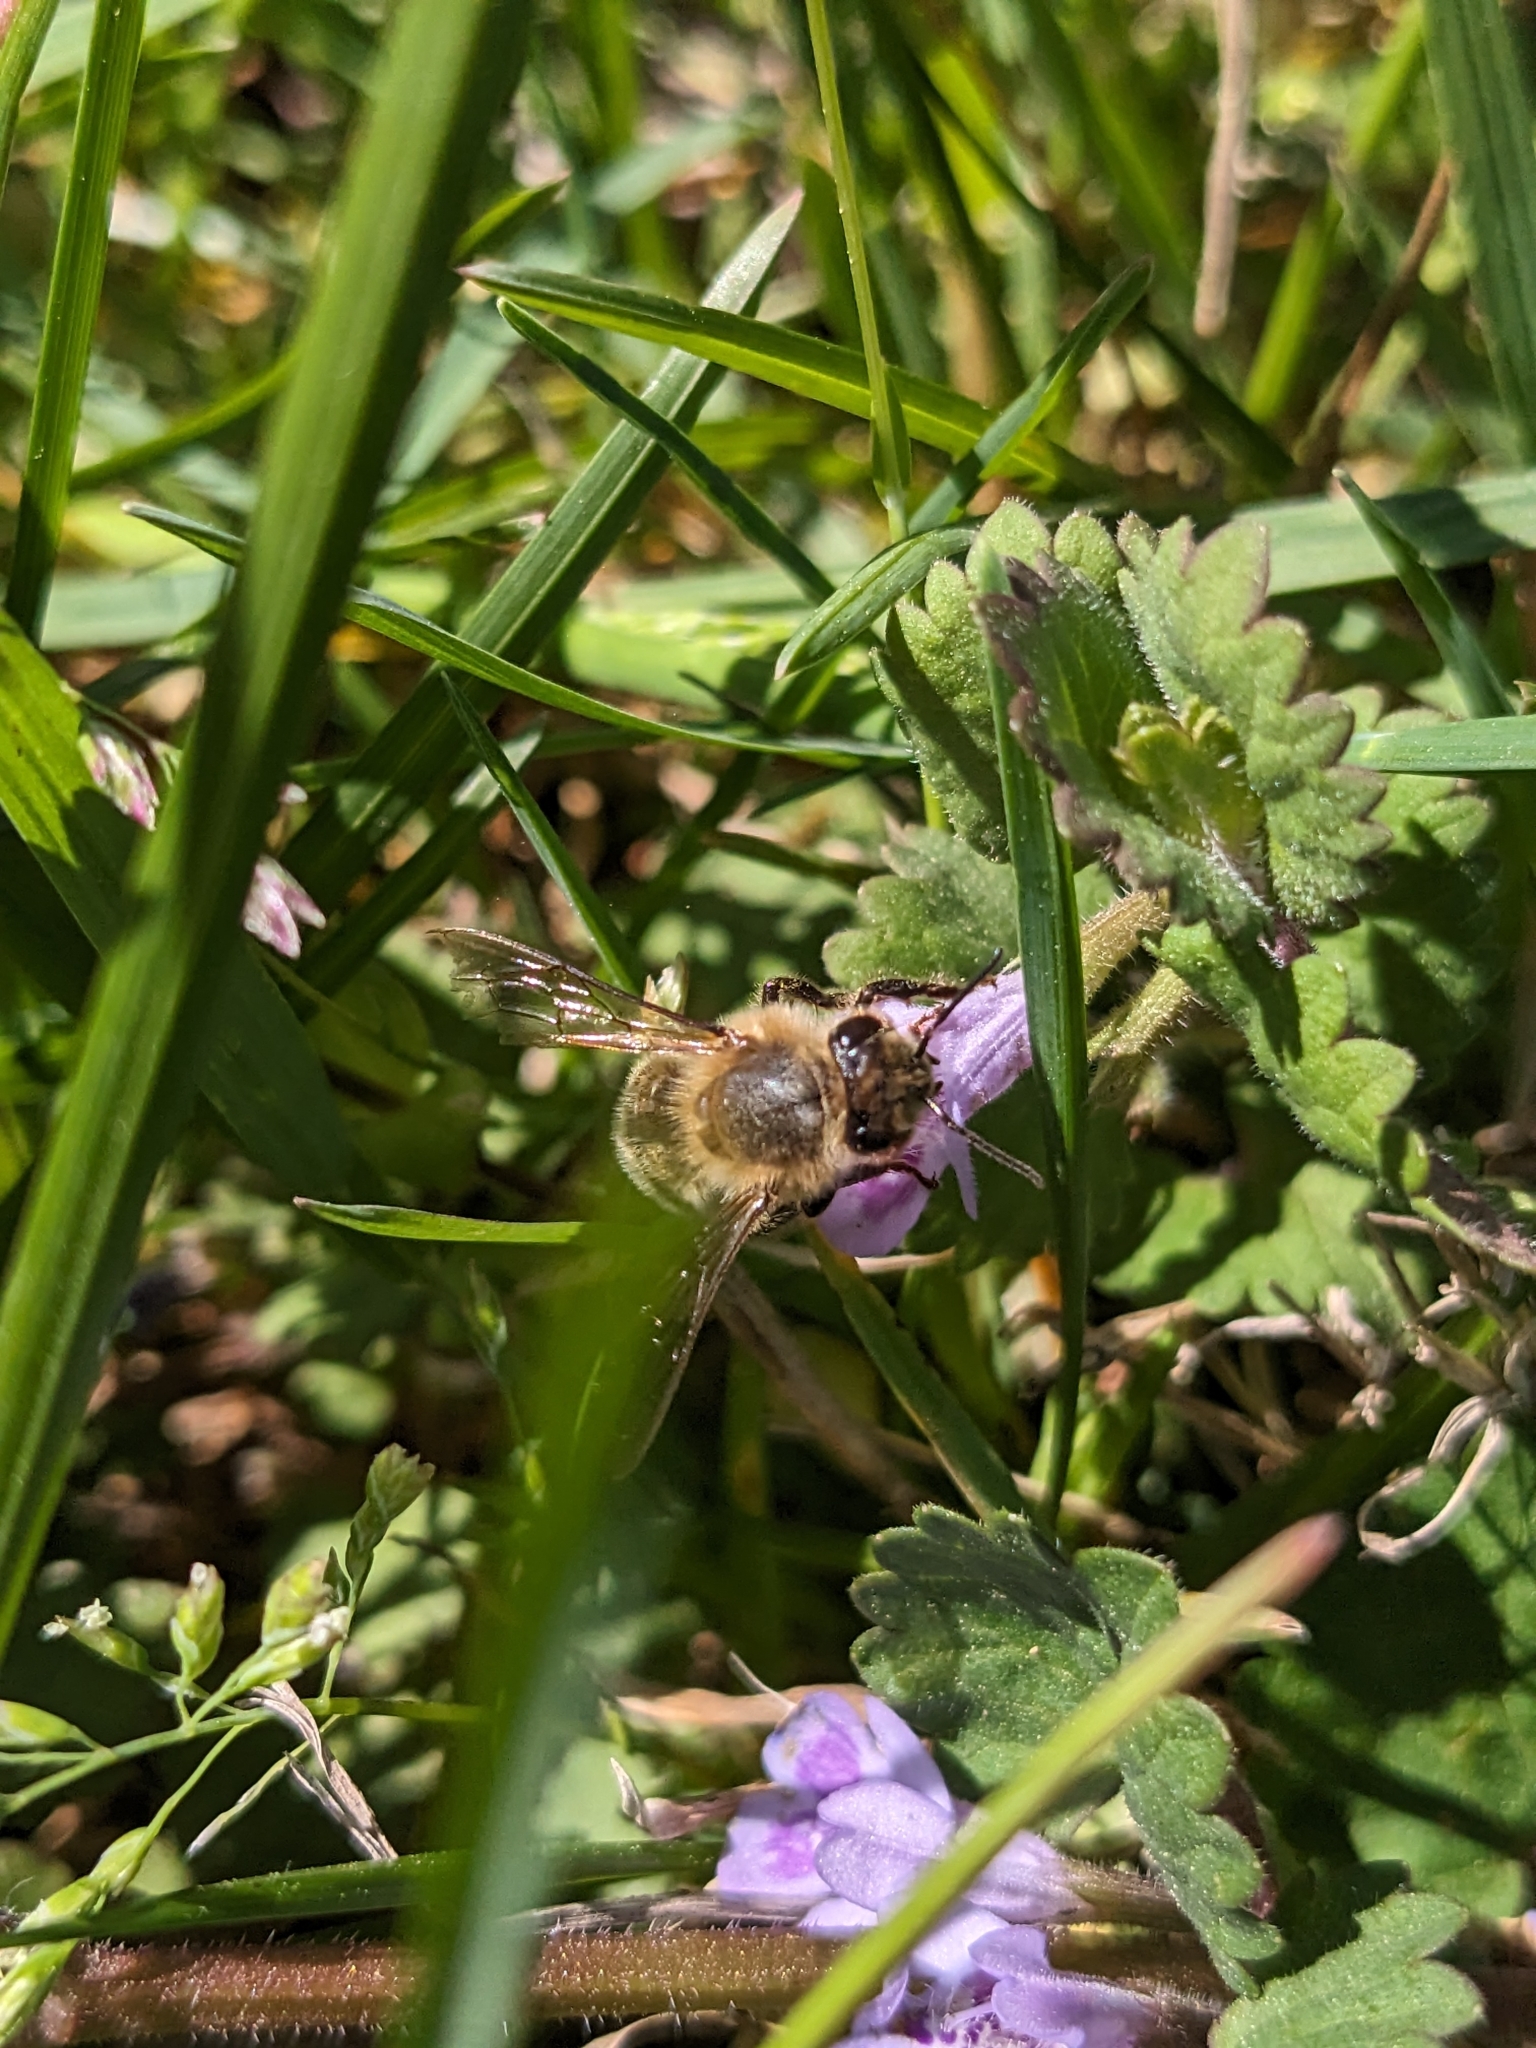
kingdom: Animalia
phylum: Arthropoda
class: Insecta
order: Hymenoptera
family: Apidae
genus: Apis
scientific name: Apis mellifera
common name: Honey bee
